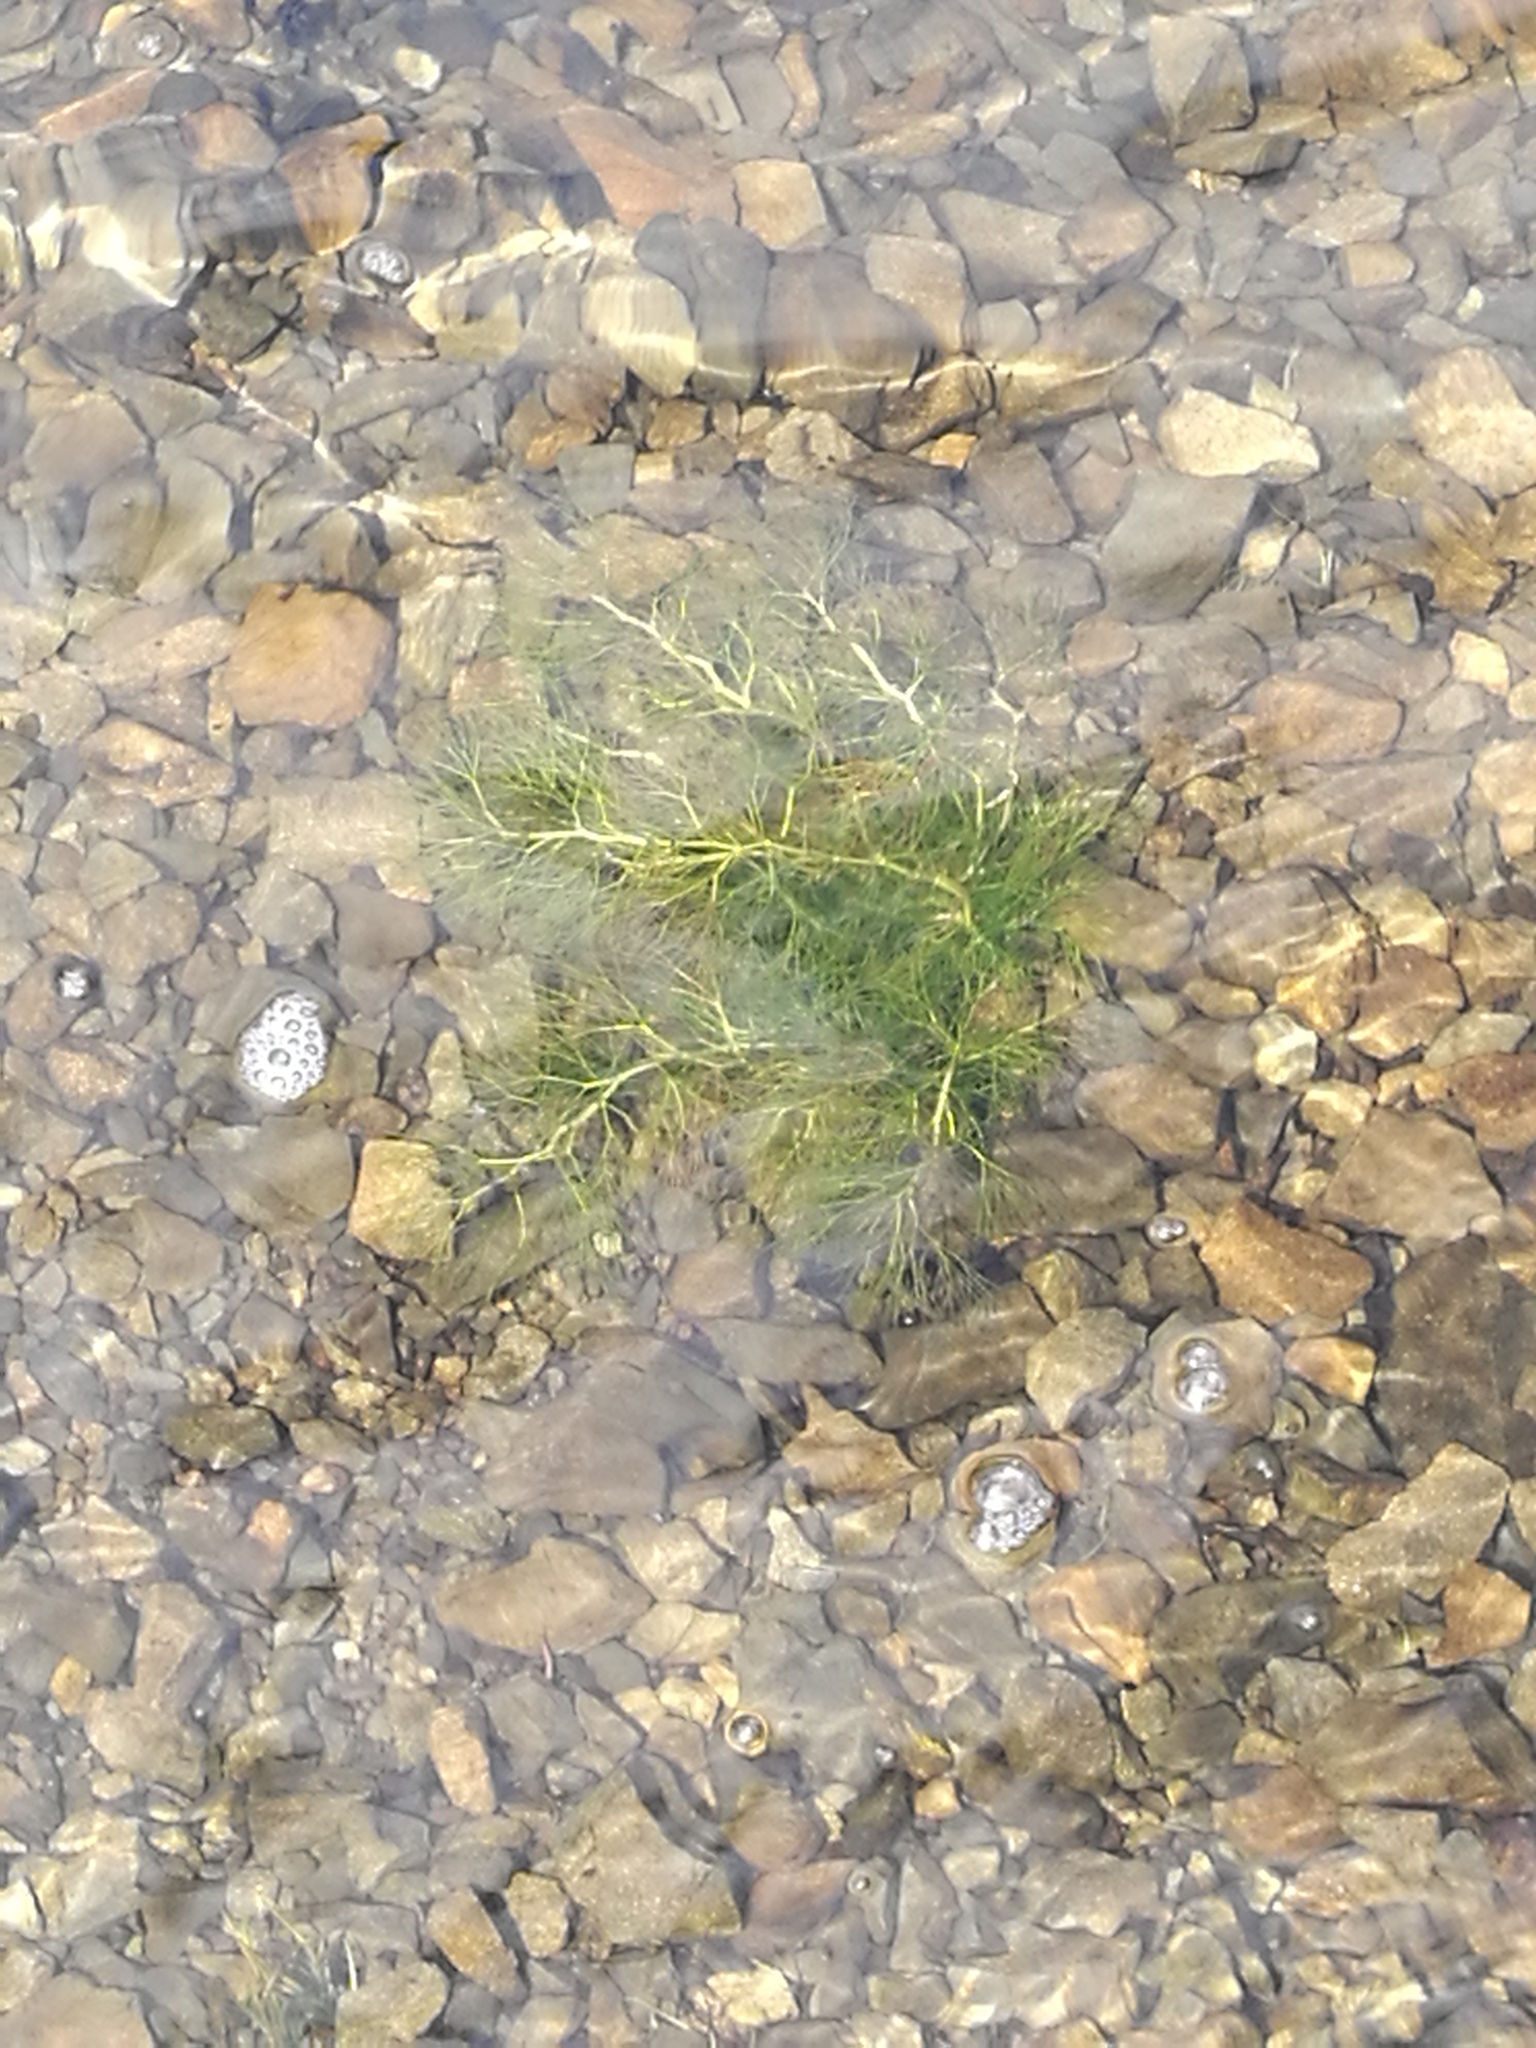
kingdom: Plantae
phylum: Tracheophyta
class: Magnoliopsida
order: Ranunculales
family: Ranunculaceae
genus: Ranunculus
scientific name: Ranunculus trichophyllus
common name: Thread-leaved water-crowfoot
